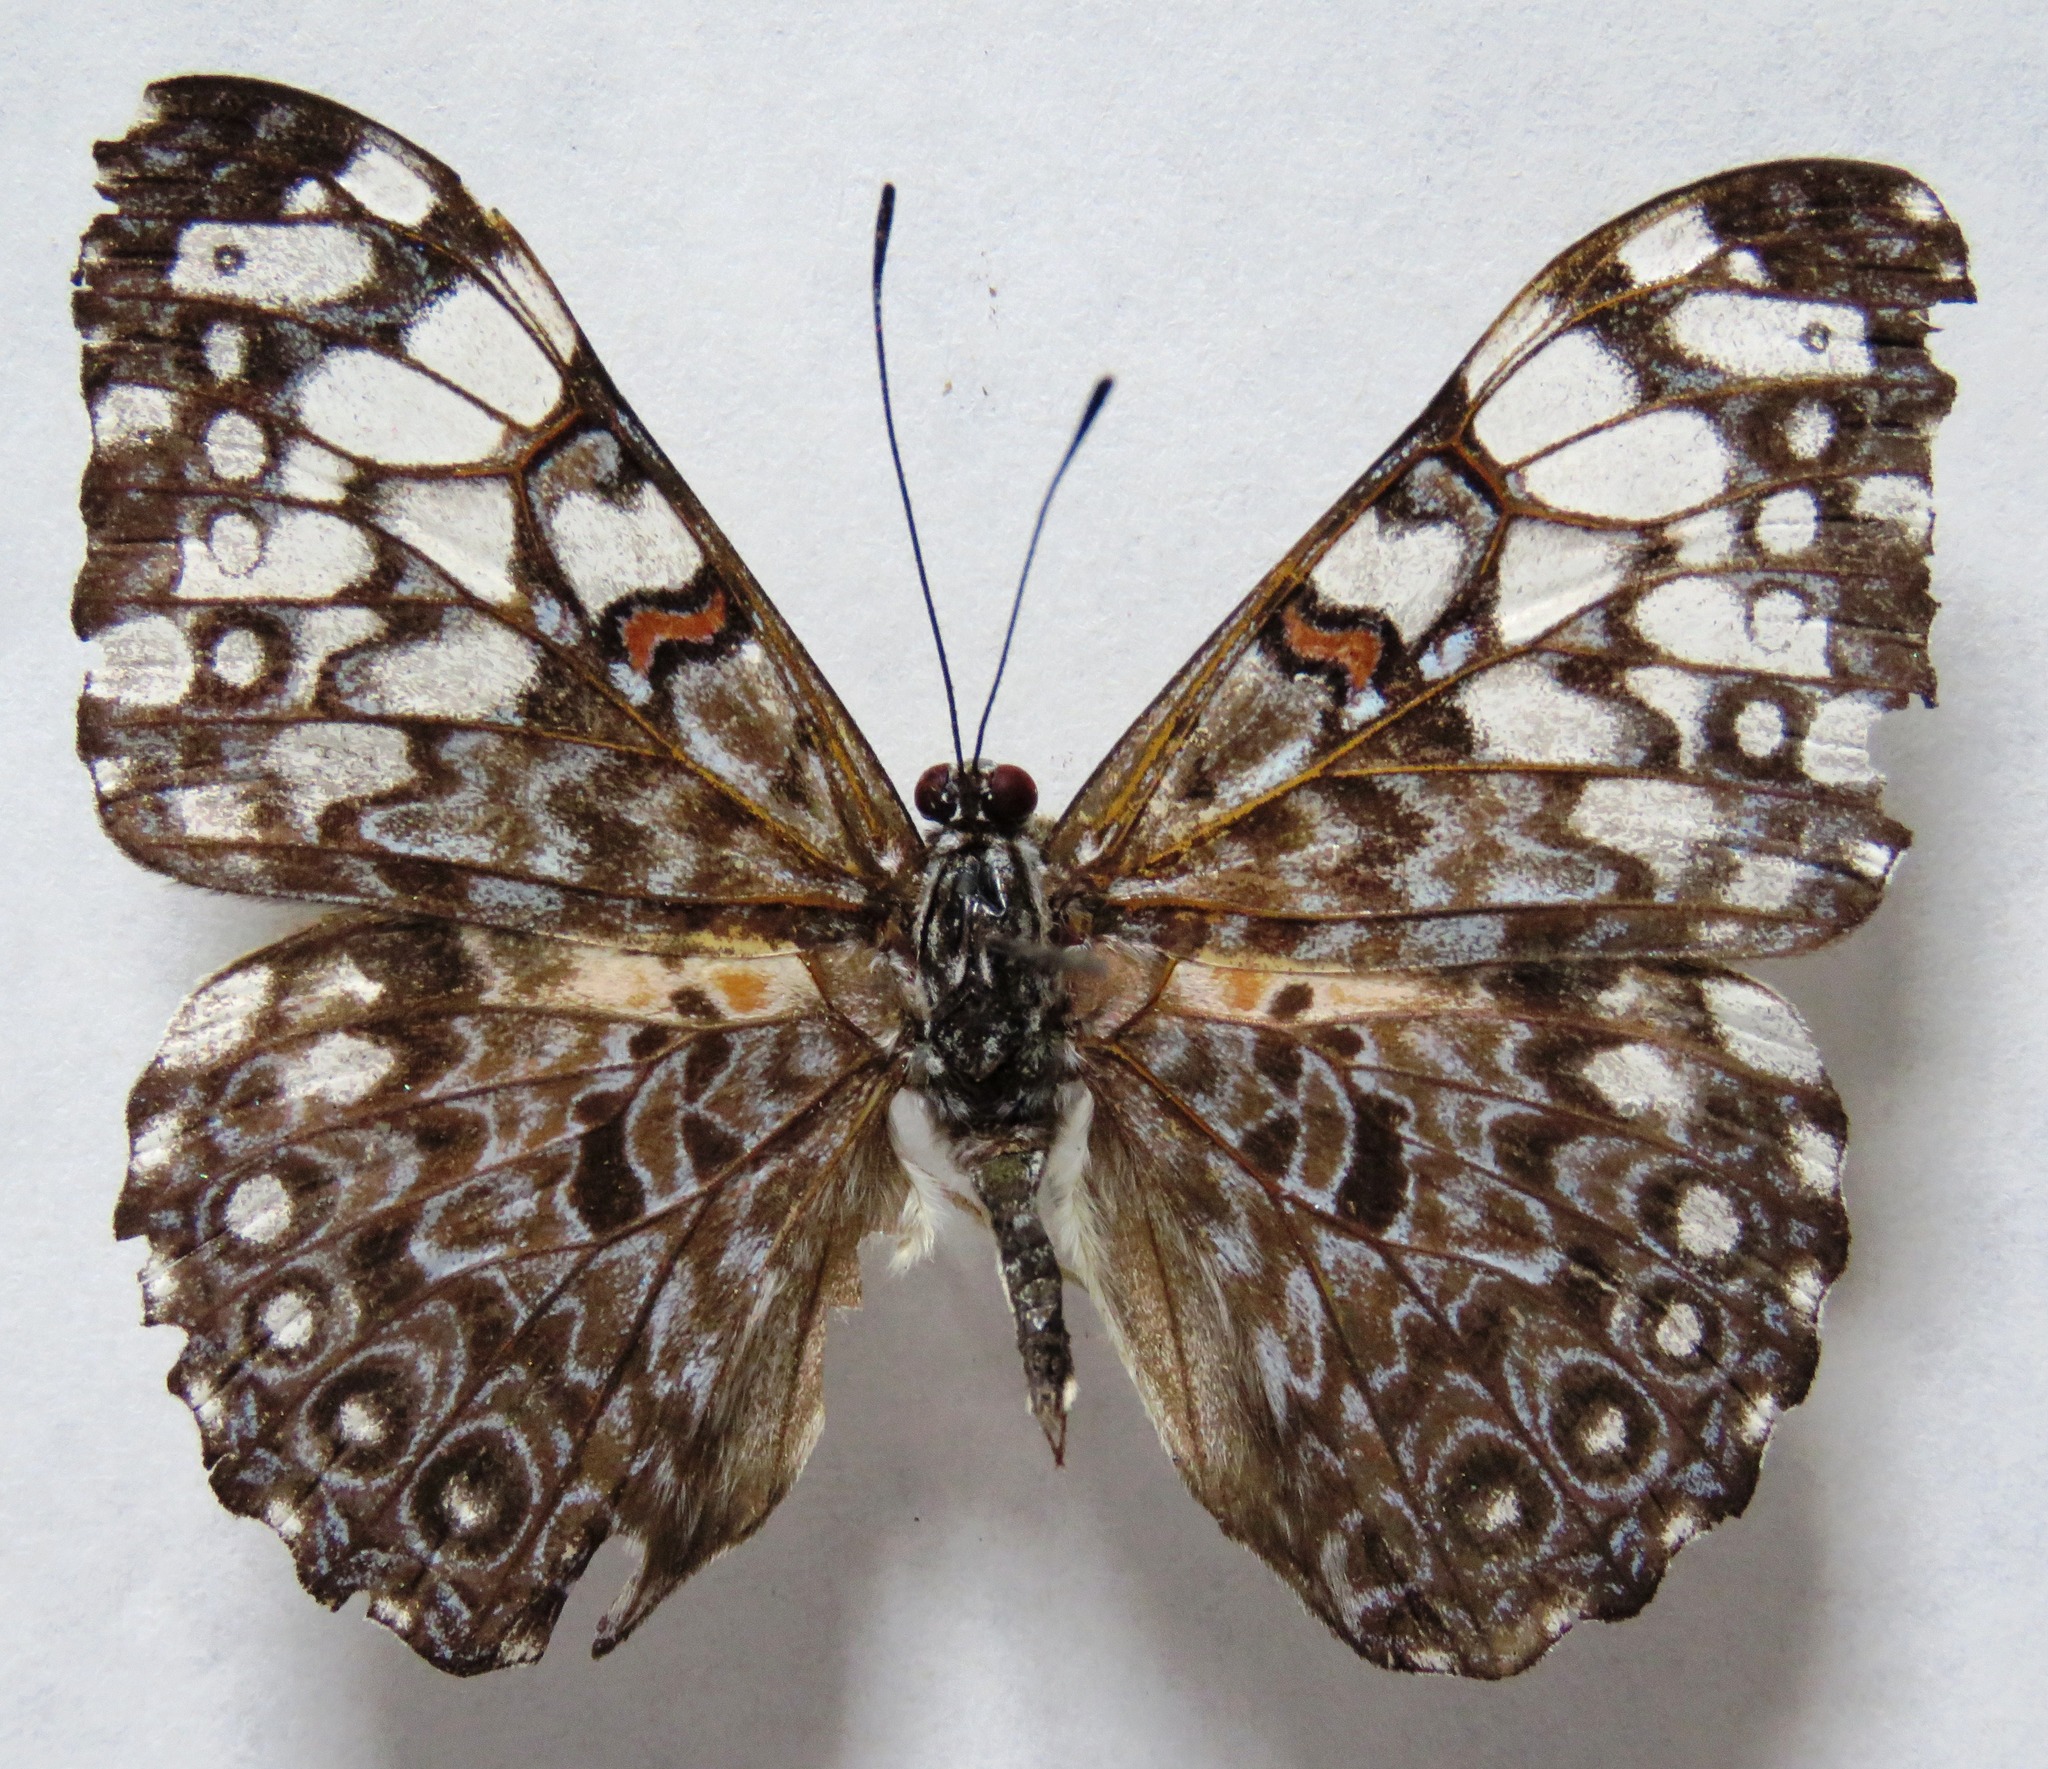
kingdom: Animalia
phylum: Arthropoda
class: Insecta
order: Lepidoptera
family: Nymphalidae
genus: Hamadryas
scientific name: Hamadryas feronia
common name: Variable cracker
